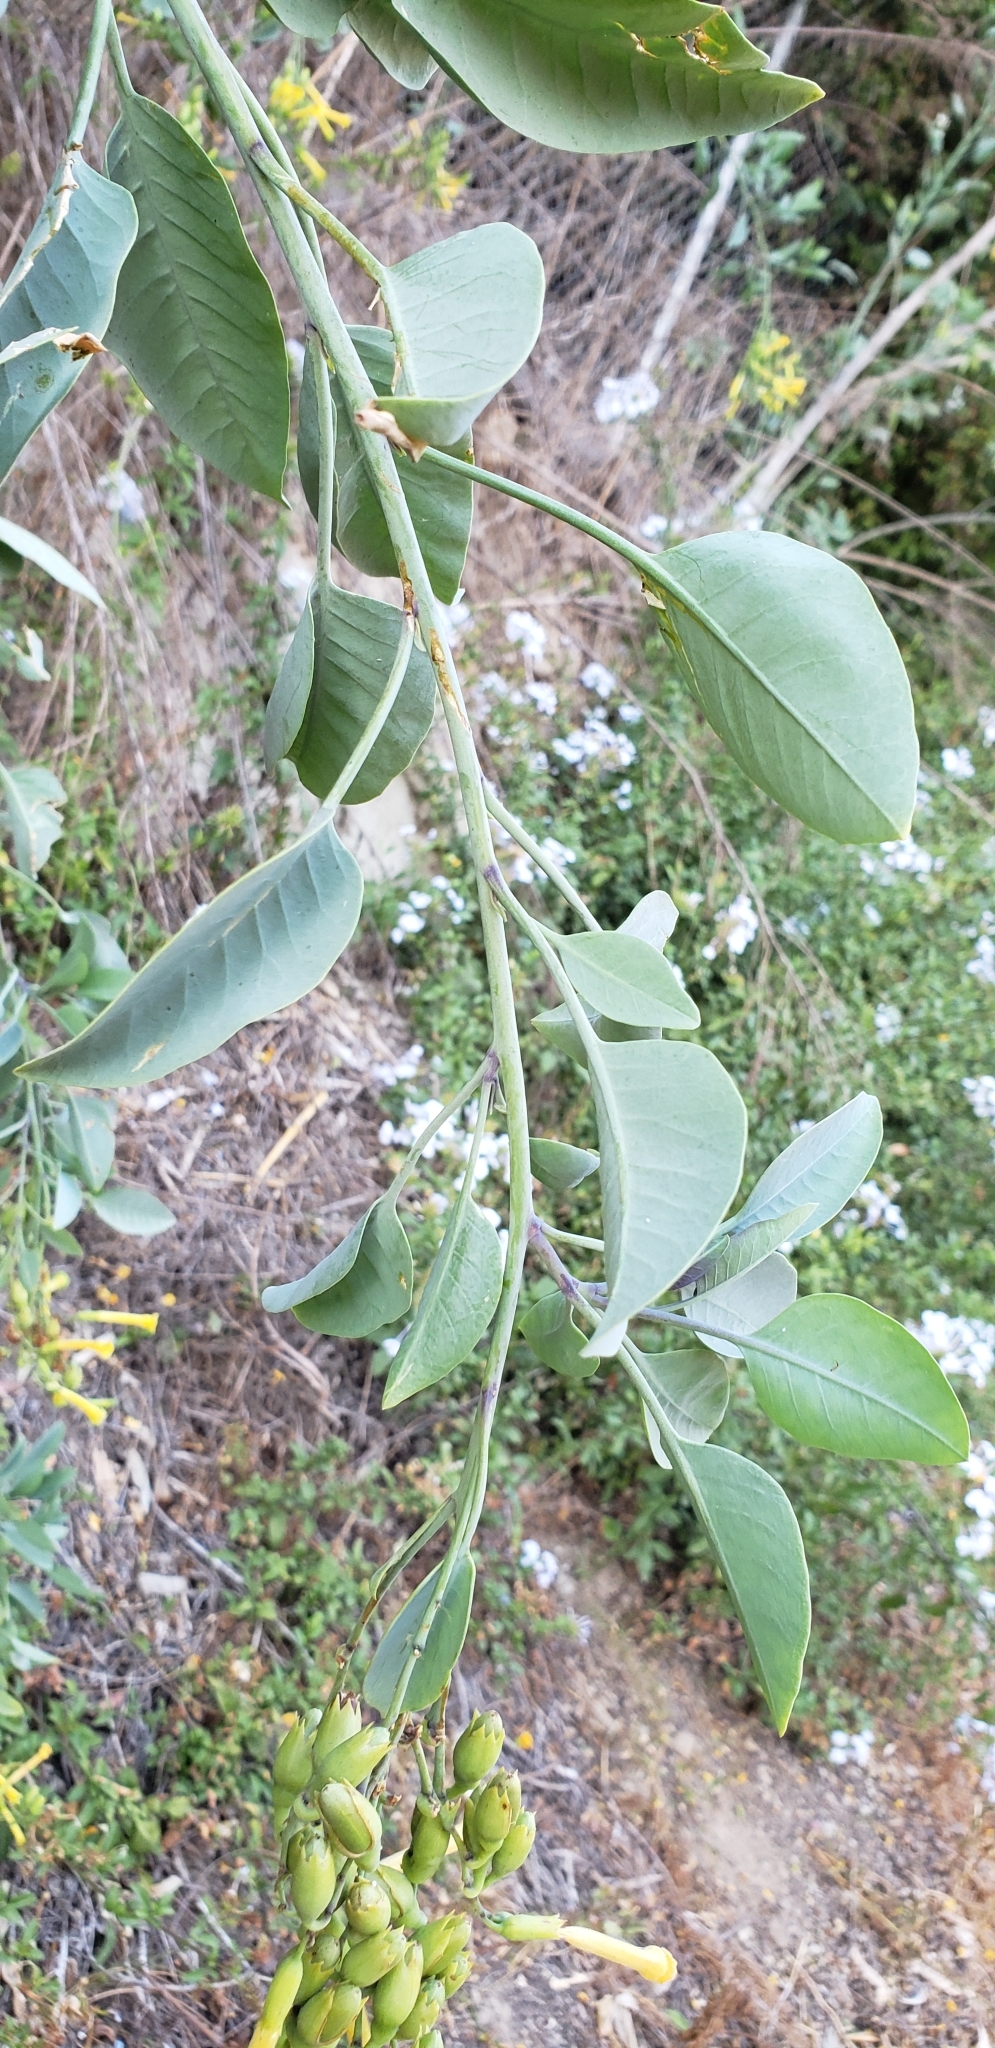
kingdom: Plantae
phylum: Tracheophyta
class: Magnoliopsida
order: Solanales
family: Solanaceae
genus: Nicotiana
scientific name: Nicotiana glauca
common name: Tree tobacco
